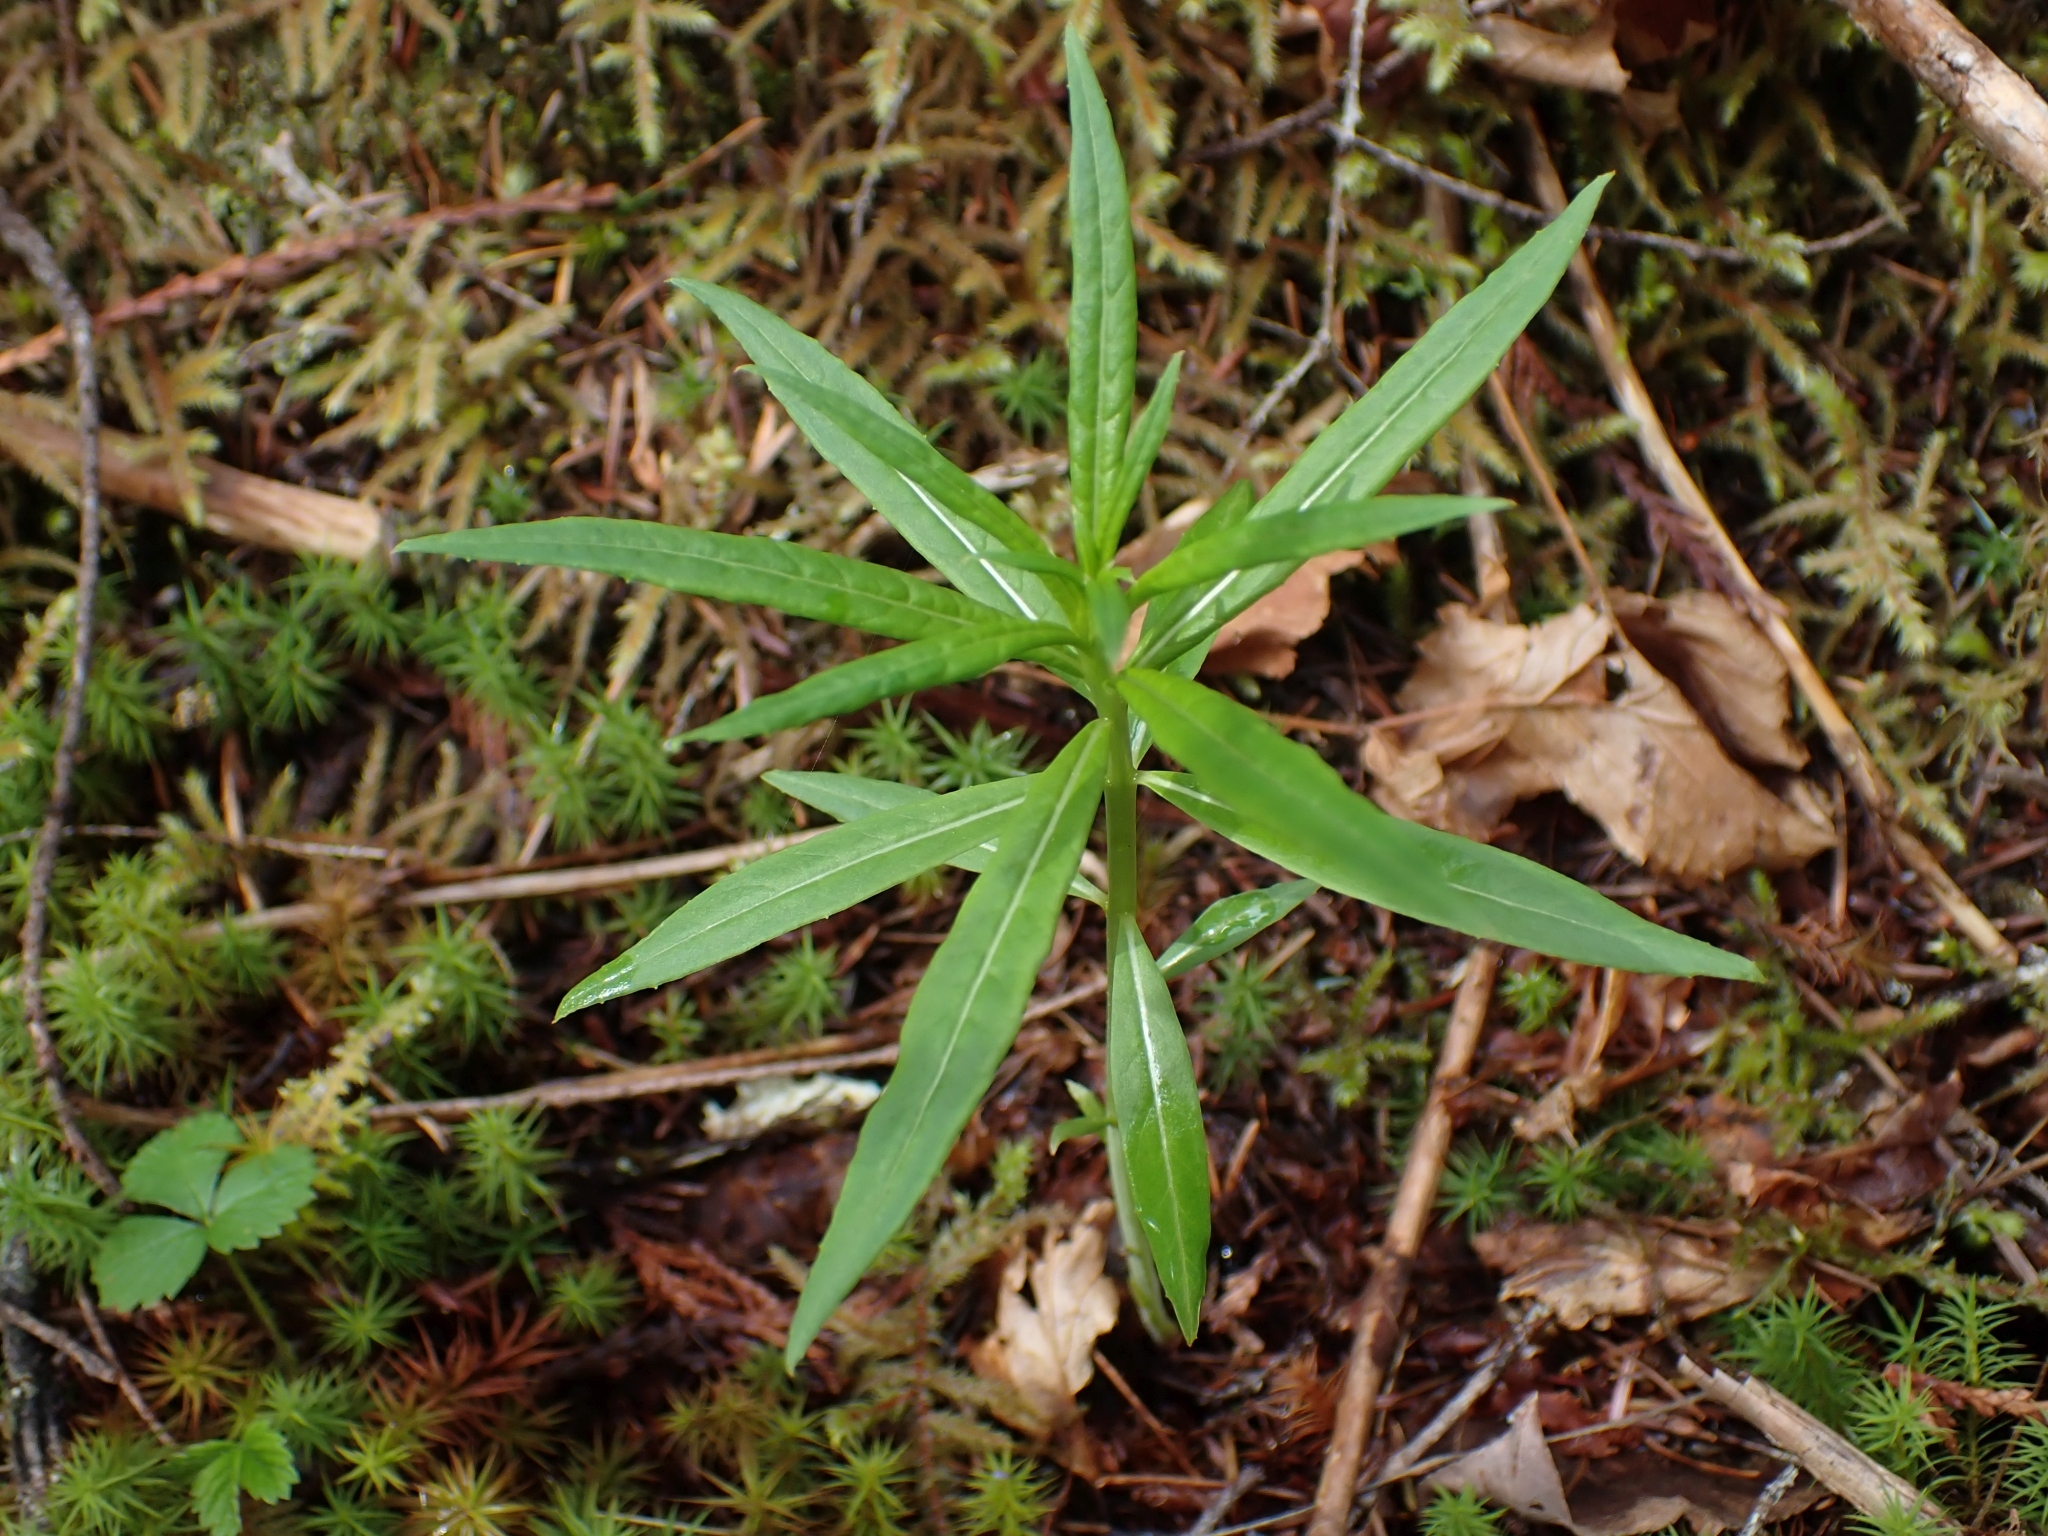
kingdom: Plantae
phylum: Tracheophyta
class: Magnoliopsida
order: Myrtales
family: Onagraceae
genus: Chamaenerion
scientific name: Chamaenerion angustifolium
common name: Fireweed
